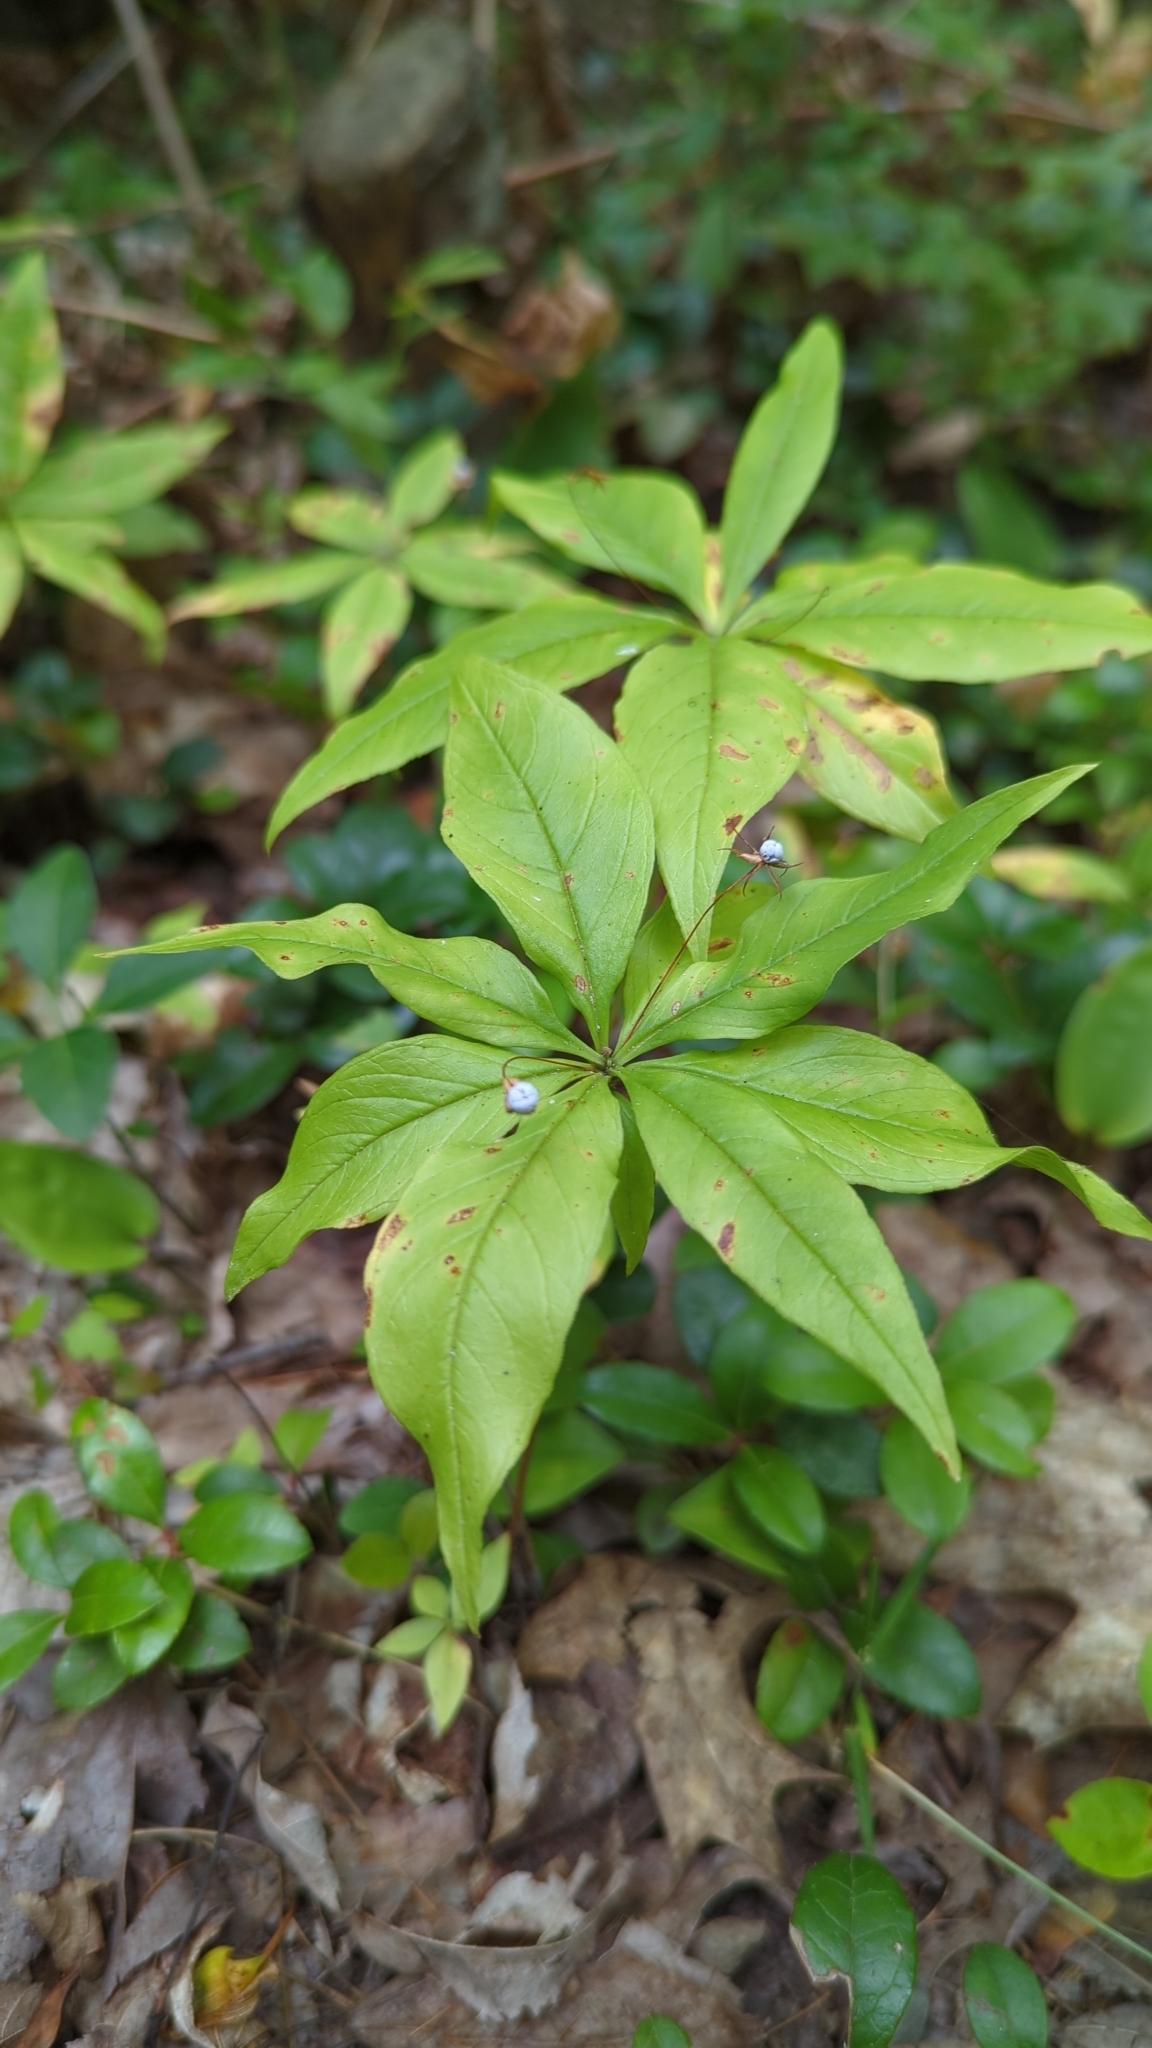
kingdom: Plantae
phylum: Tracheophyta
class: Magnoliopsida
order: Ericales
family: Primulaceae
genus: Lysimachia
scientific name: Lysimachia borealis
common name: American starflower
